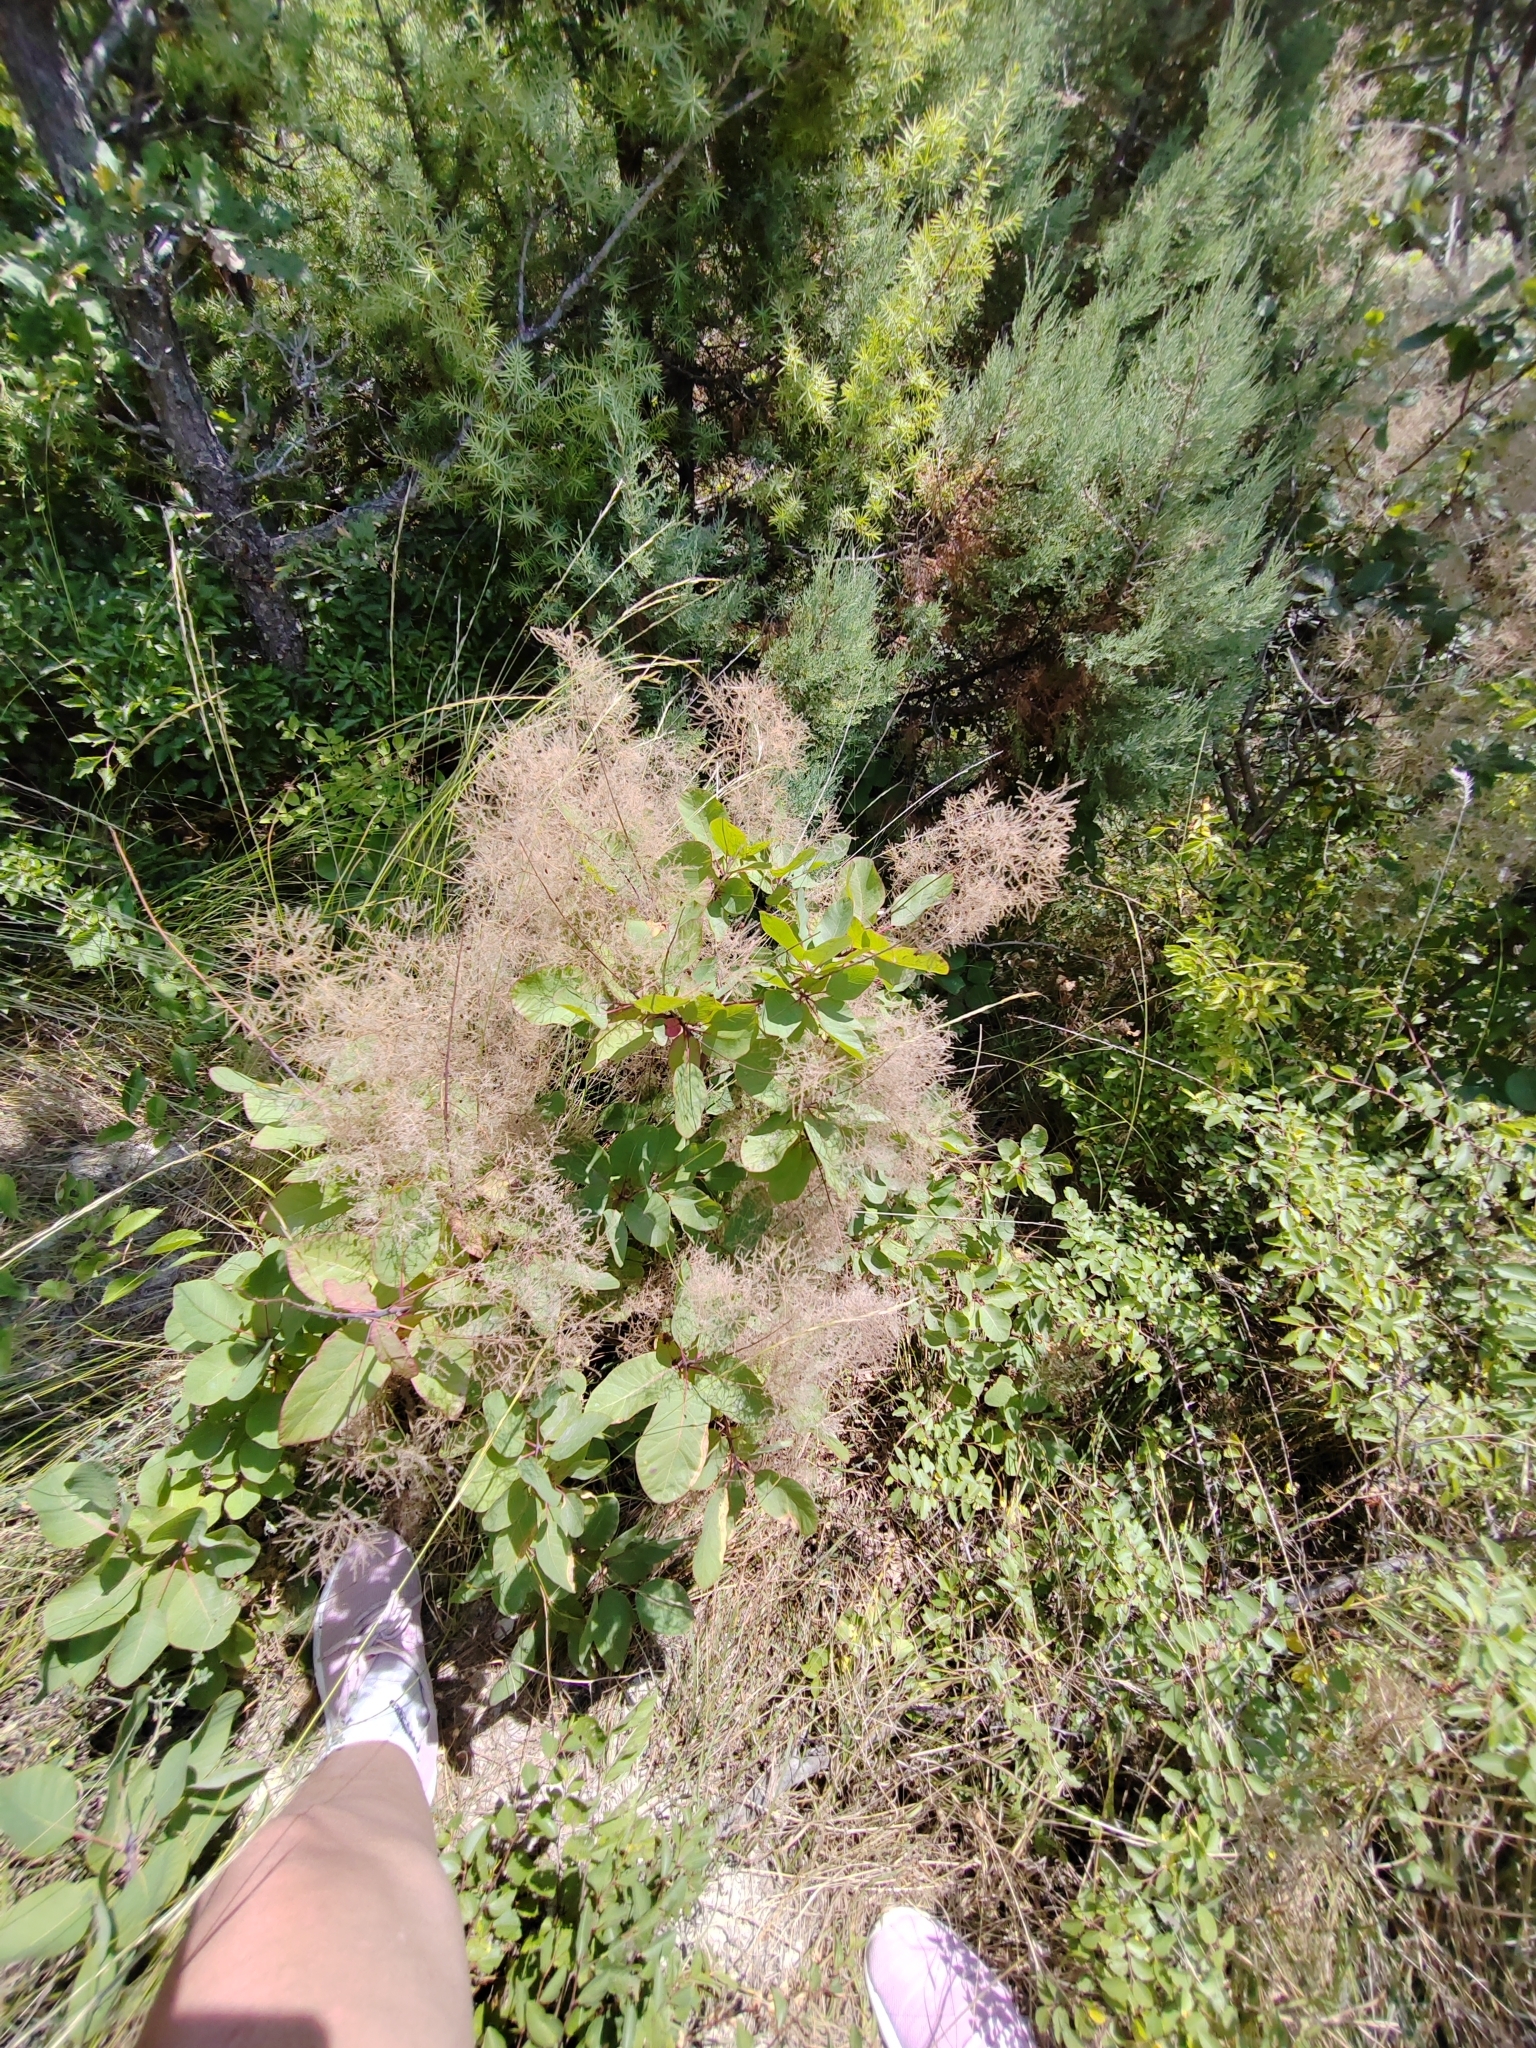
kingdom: Plantae
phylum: Tracheophyta
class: Magnoliopsida
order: Sapindales
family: Anacardiaceae
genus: Cotinus
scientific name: Cotinus coggygria
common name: Smoke-tree
